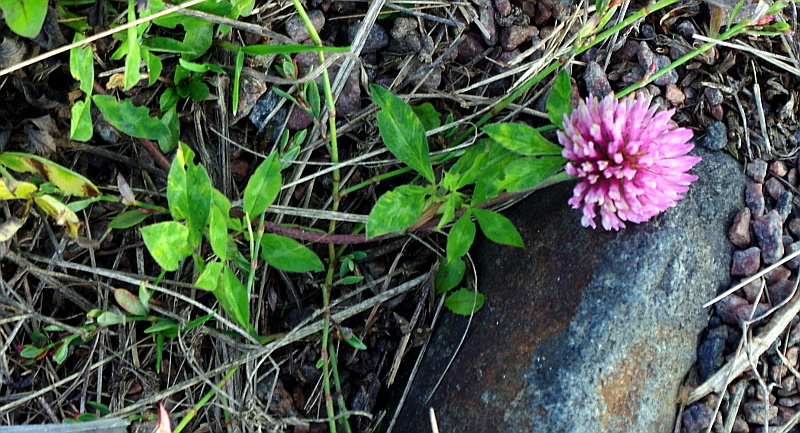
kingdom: Plantae
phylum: Tracheophyta
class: Magnoliopsida
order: Fabales
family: Fabaceae
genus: Trifolium
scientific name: Trifolium pratense
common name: Red clover
